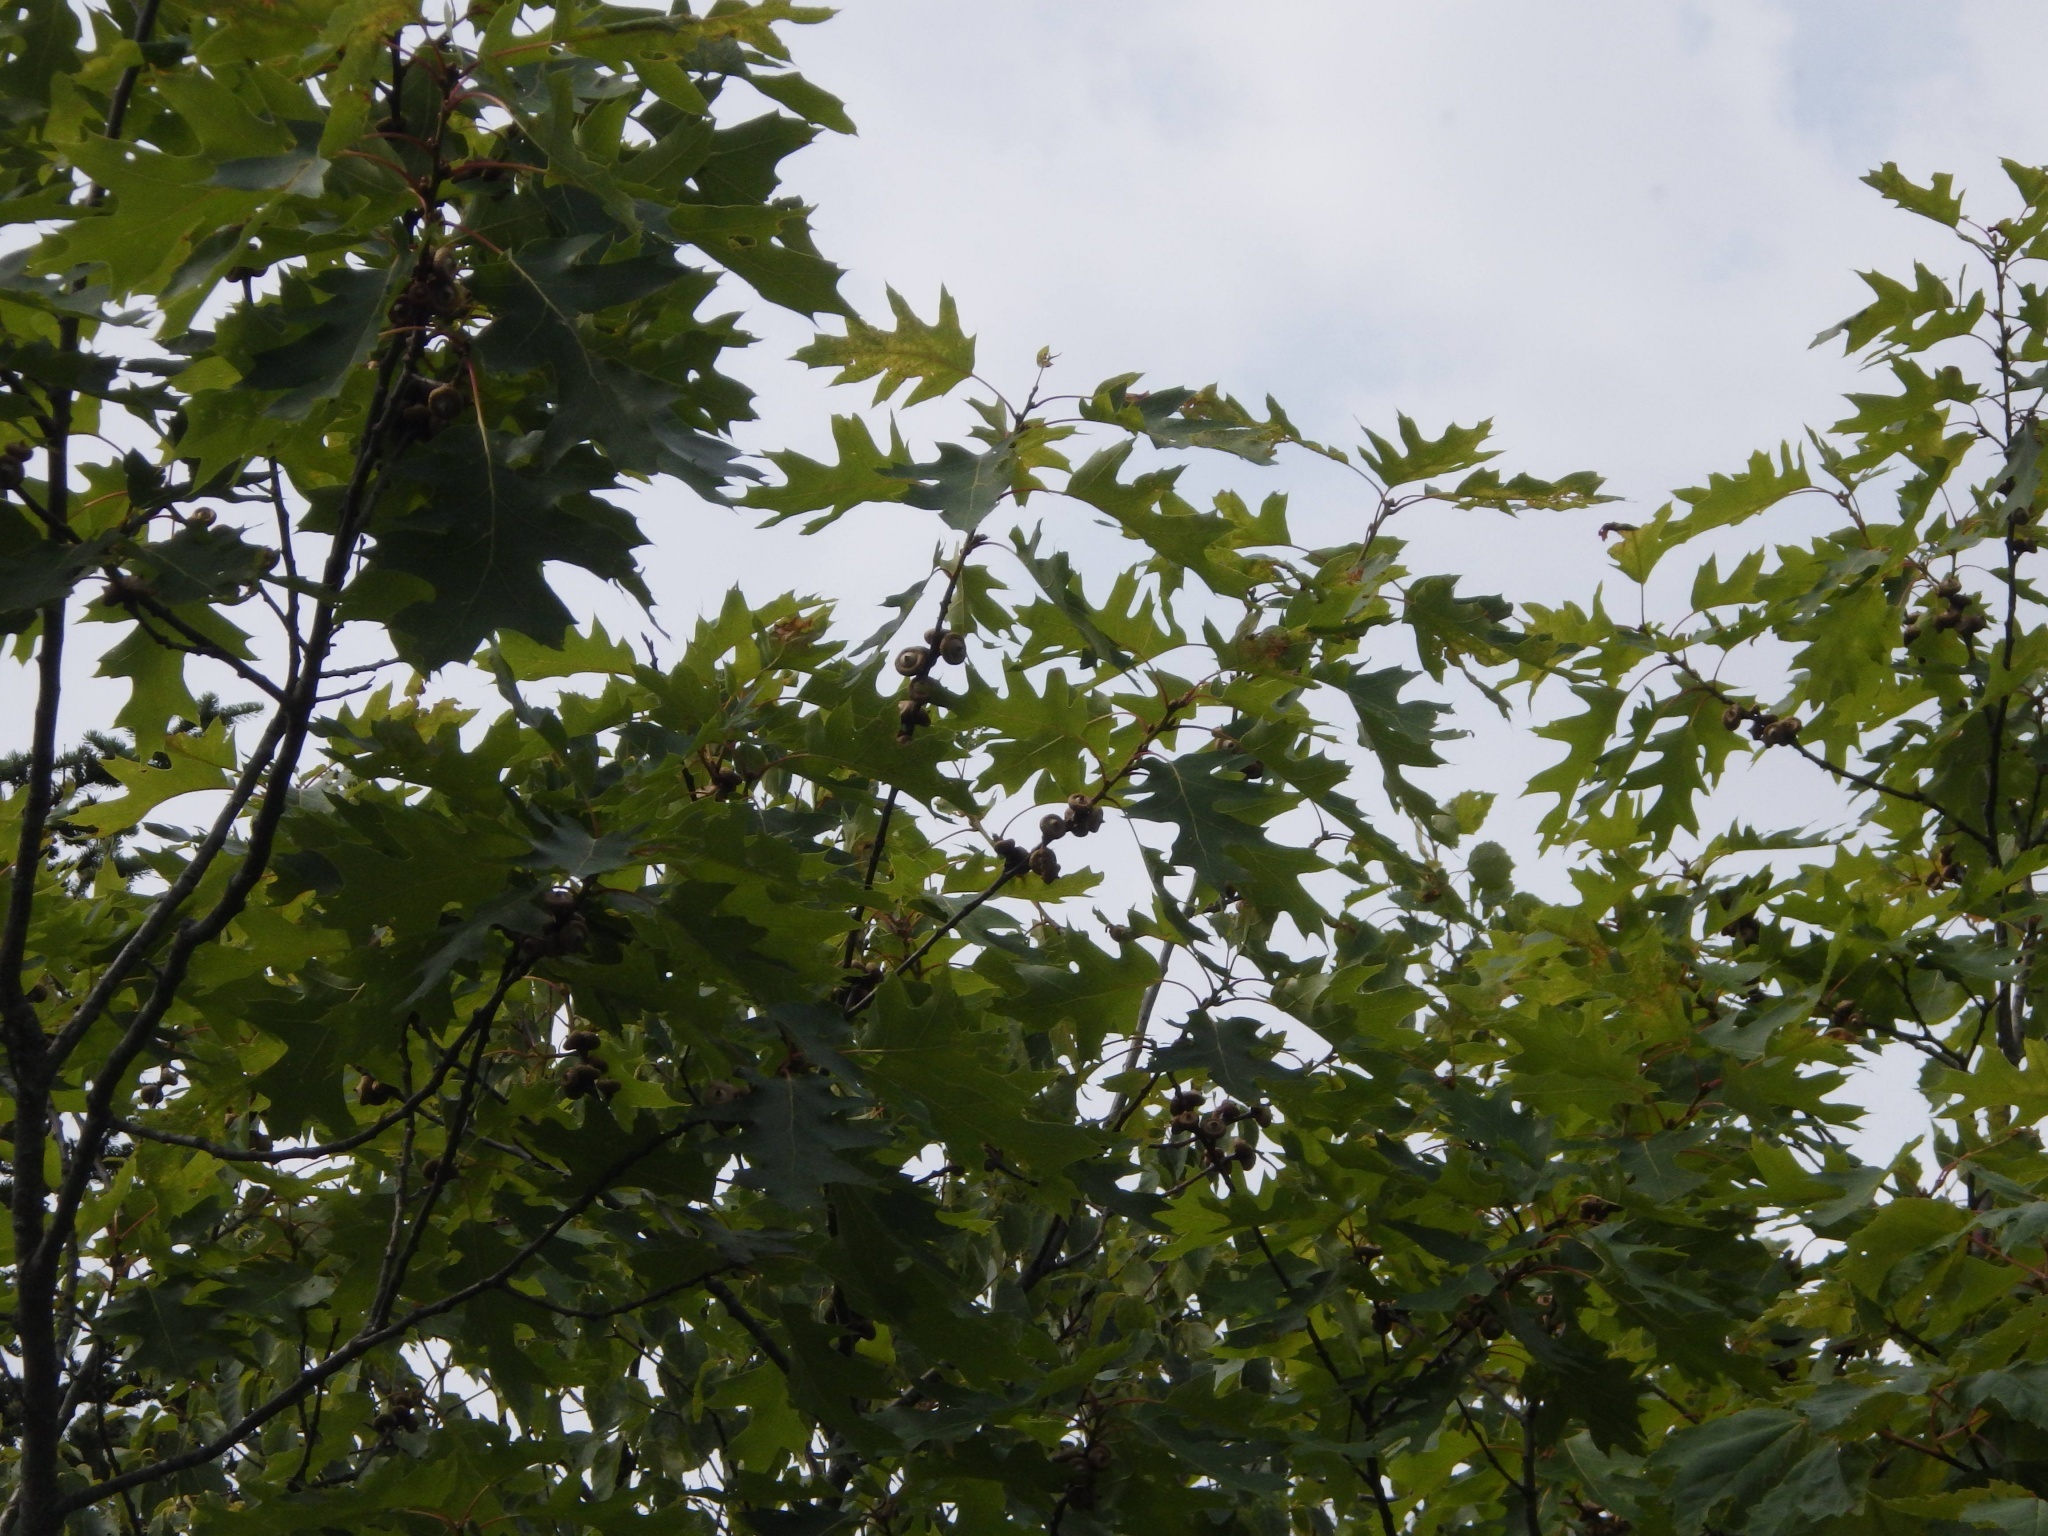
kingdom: Plantae
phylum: Tracheophyta
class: Magnoliopsida
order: Fagales
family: Fagaceae
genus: Quercus
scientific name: Quercus rubra
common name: Red oak
